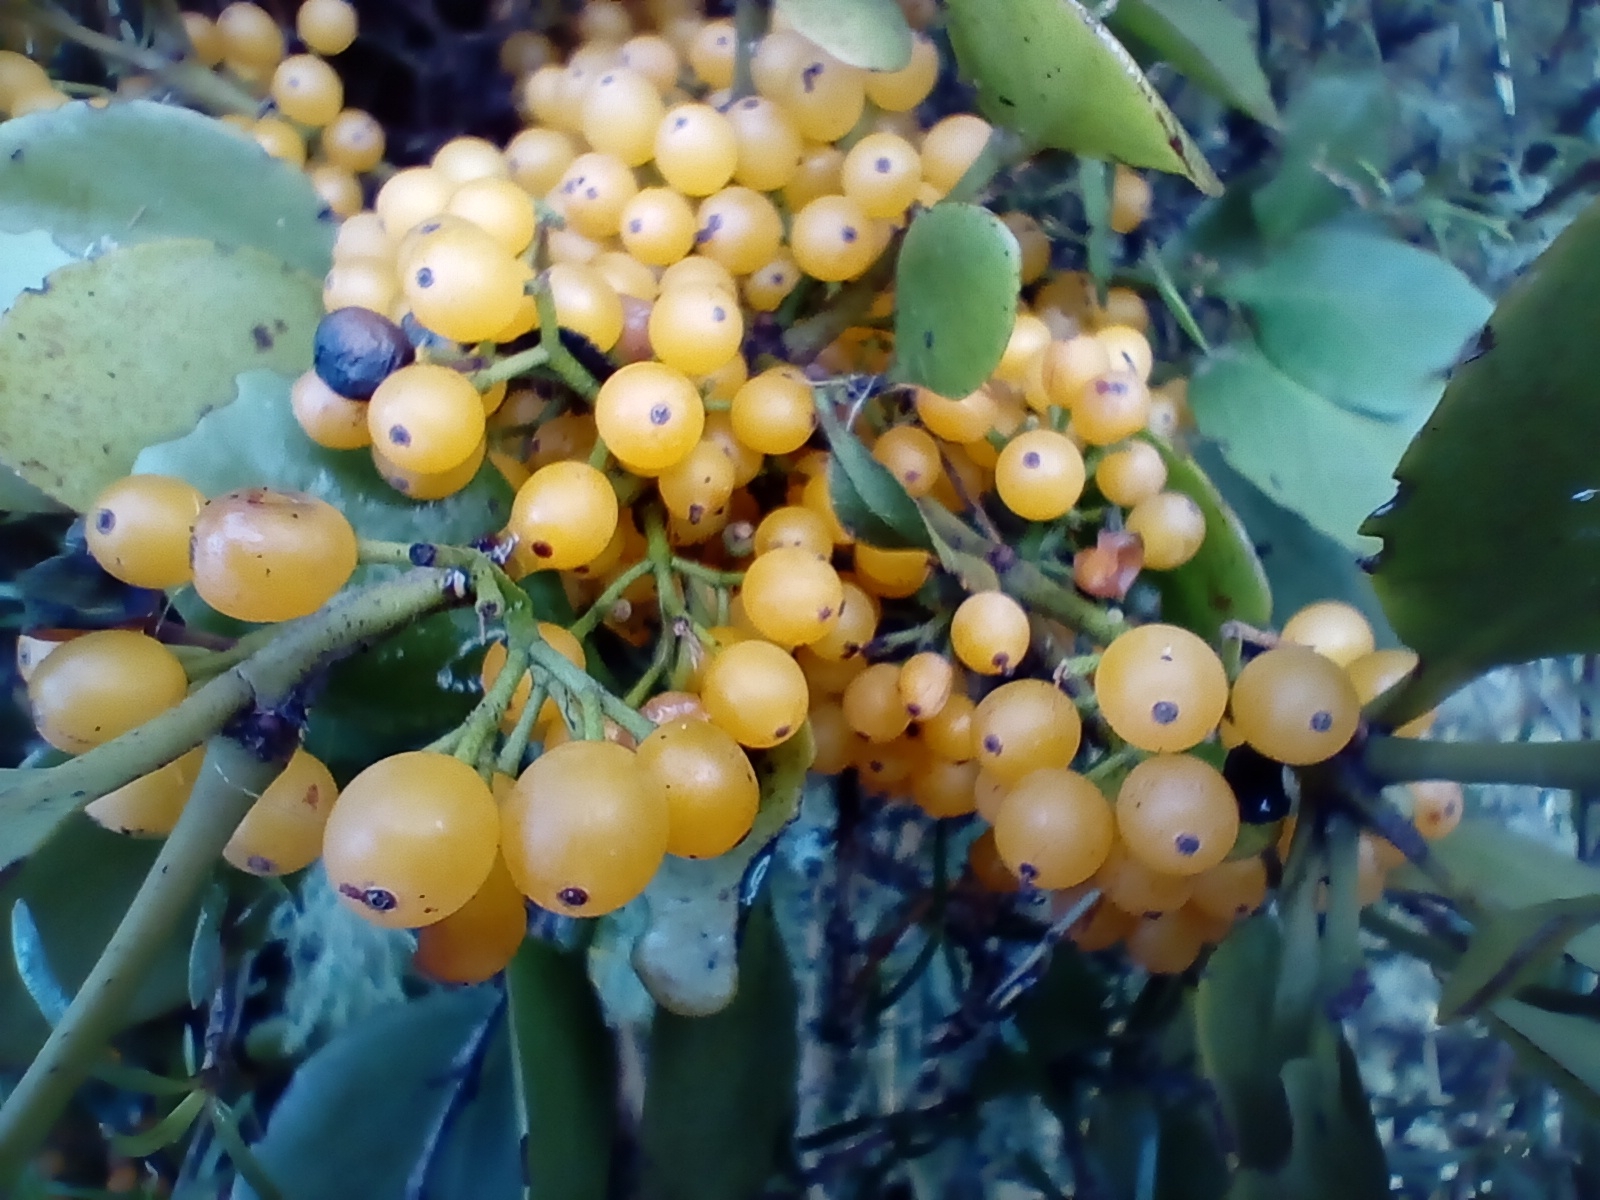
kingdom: Plantae
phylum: Tracheophyta
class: Magnoliopsida
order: Santalales
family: Loranthaceae
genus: Ileostylus
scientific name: Ileostylus micranthus
